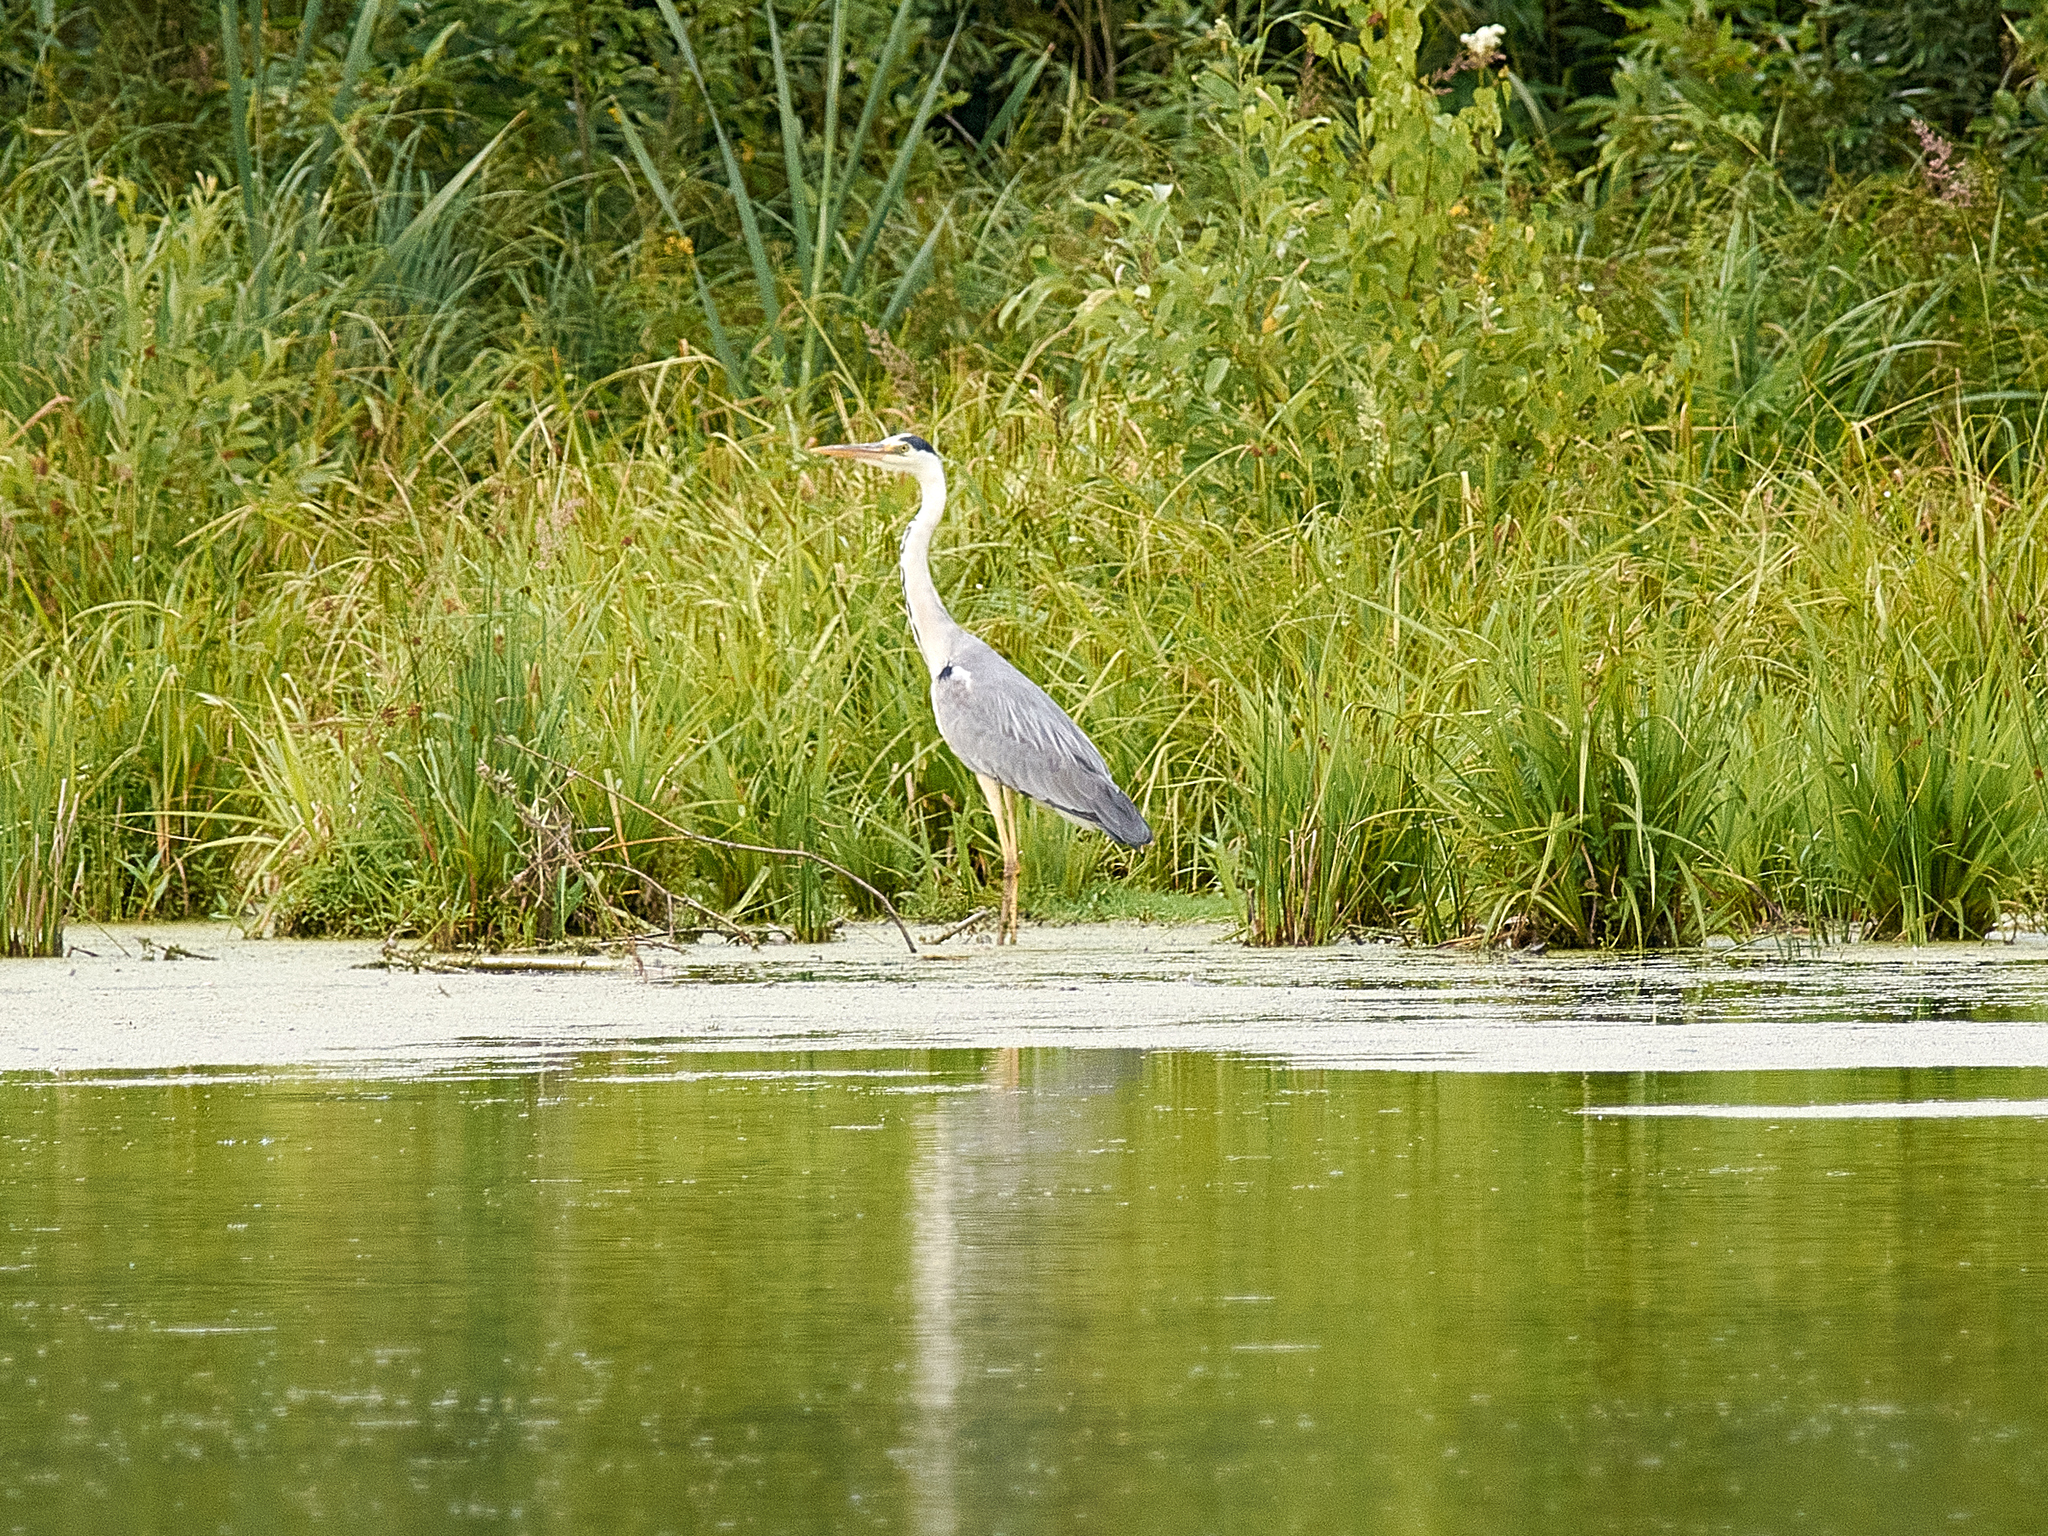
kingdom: Animalia
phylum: Chordata
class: Aves
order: Pelecaniformes
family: Ardeidae
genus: Ardea
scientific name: Ardea cinerea
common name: Grey heron
